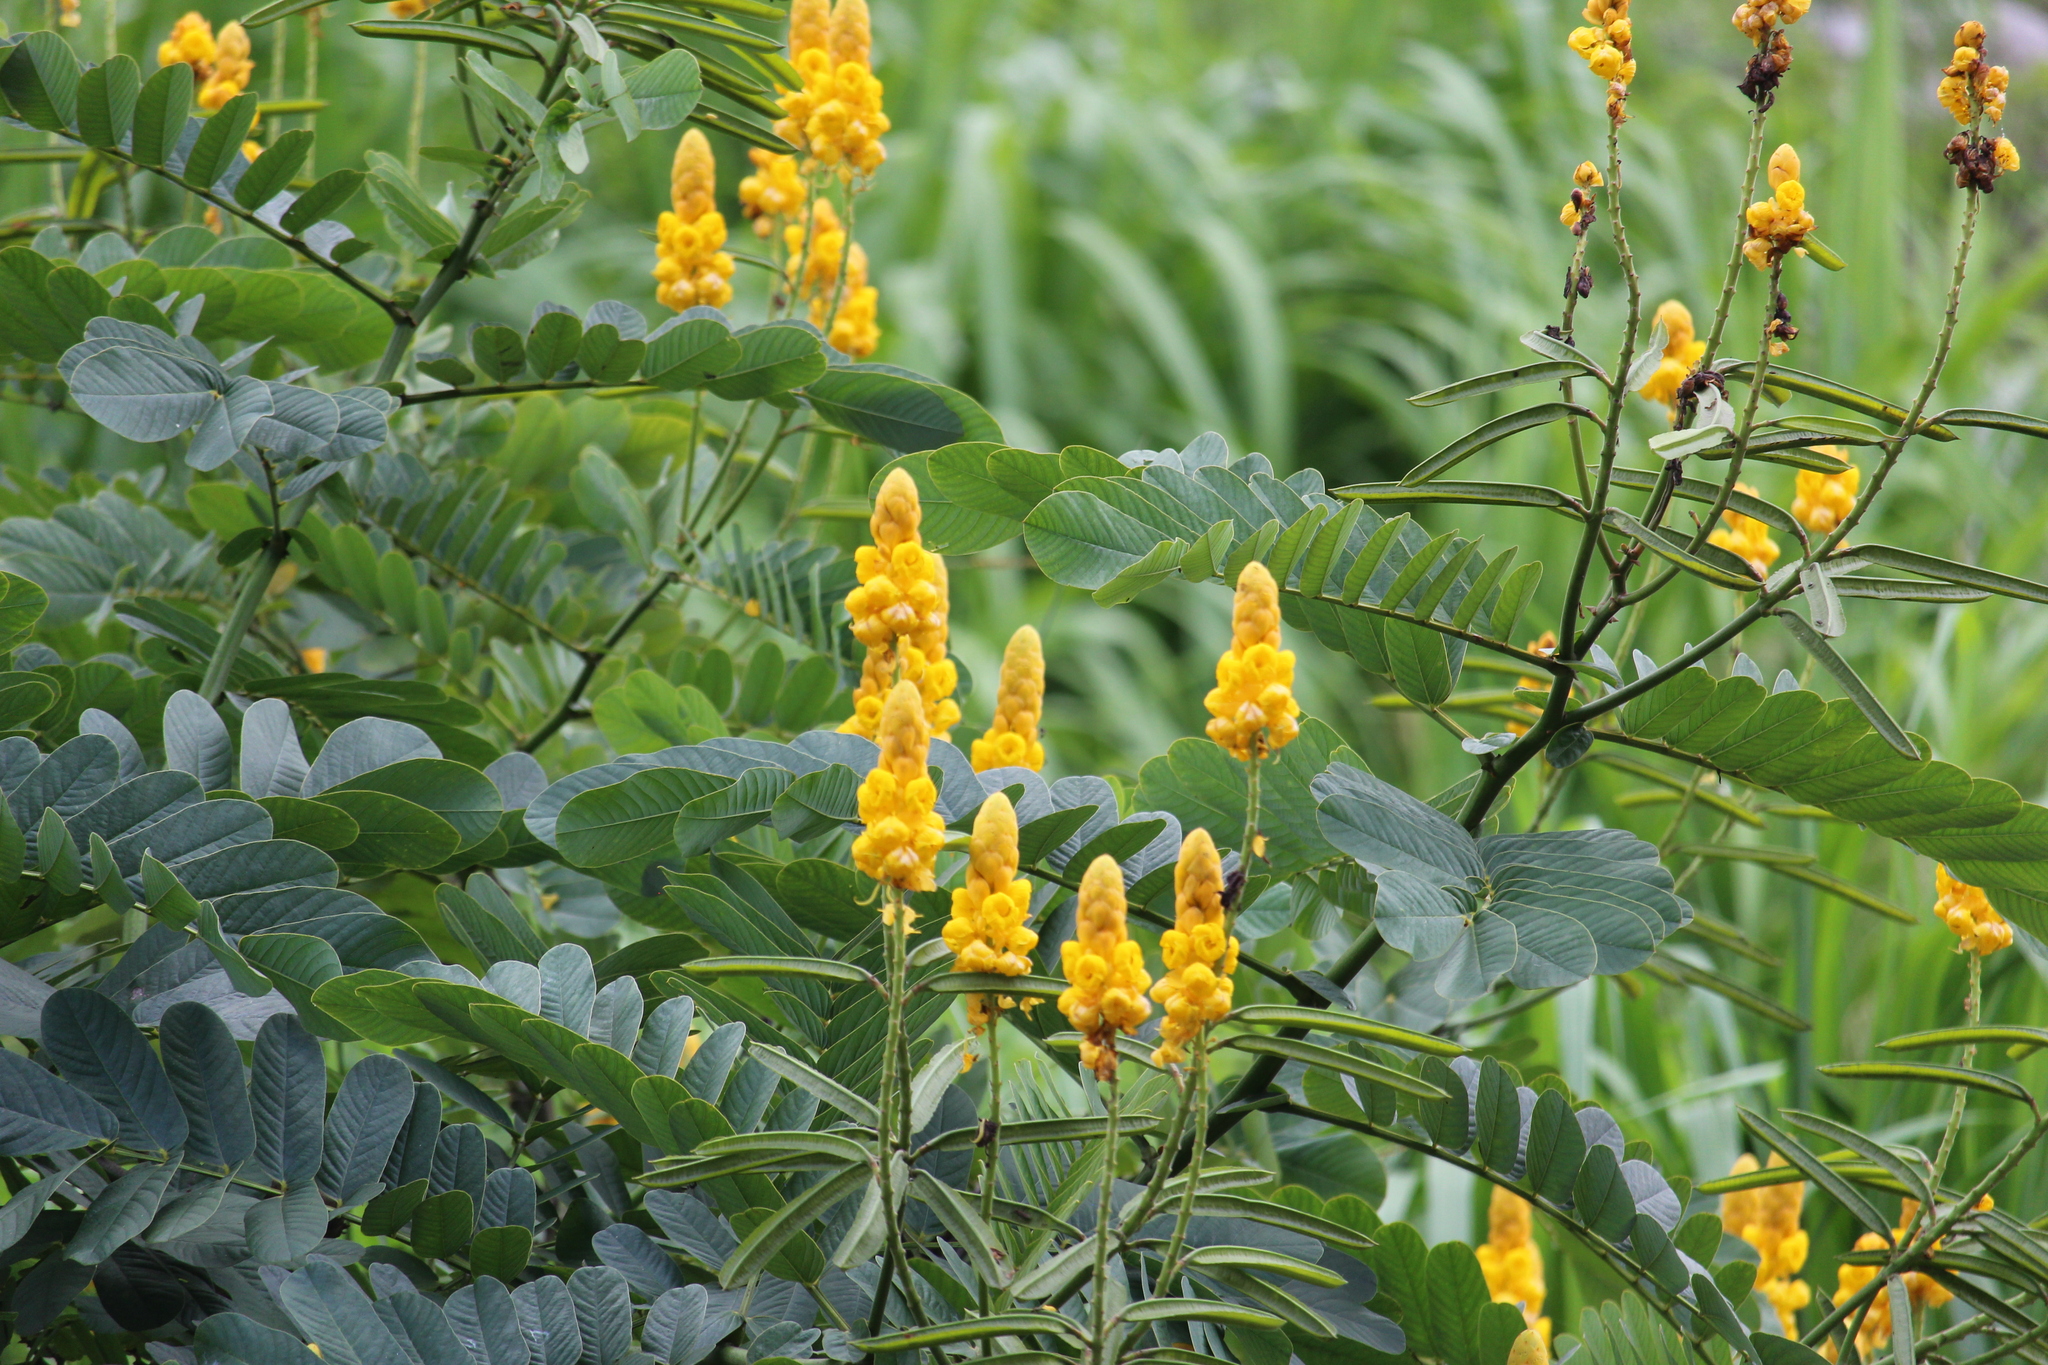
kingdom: Plantae
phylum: Tracheophyta
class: Magnoliopsida
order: Fabales
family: Fabaceae
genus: Senna
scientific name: Senna alata
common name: Emperor's candlesticks
